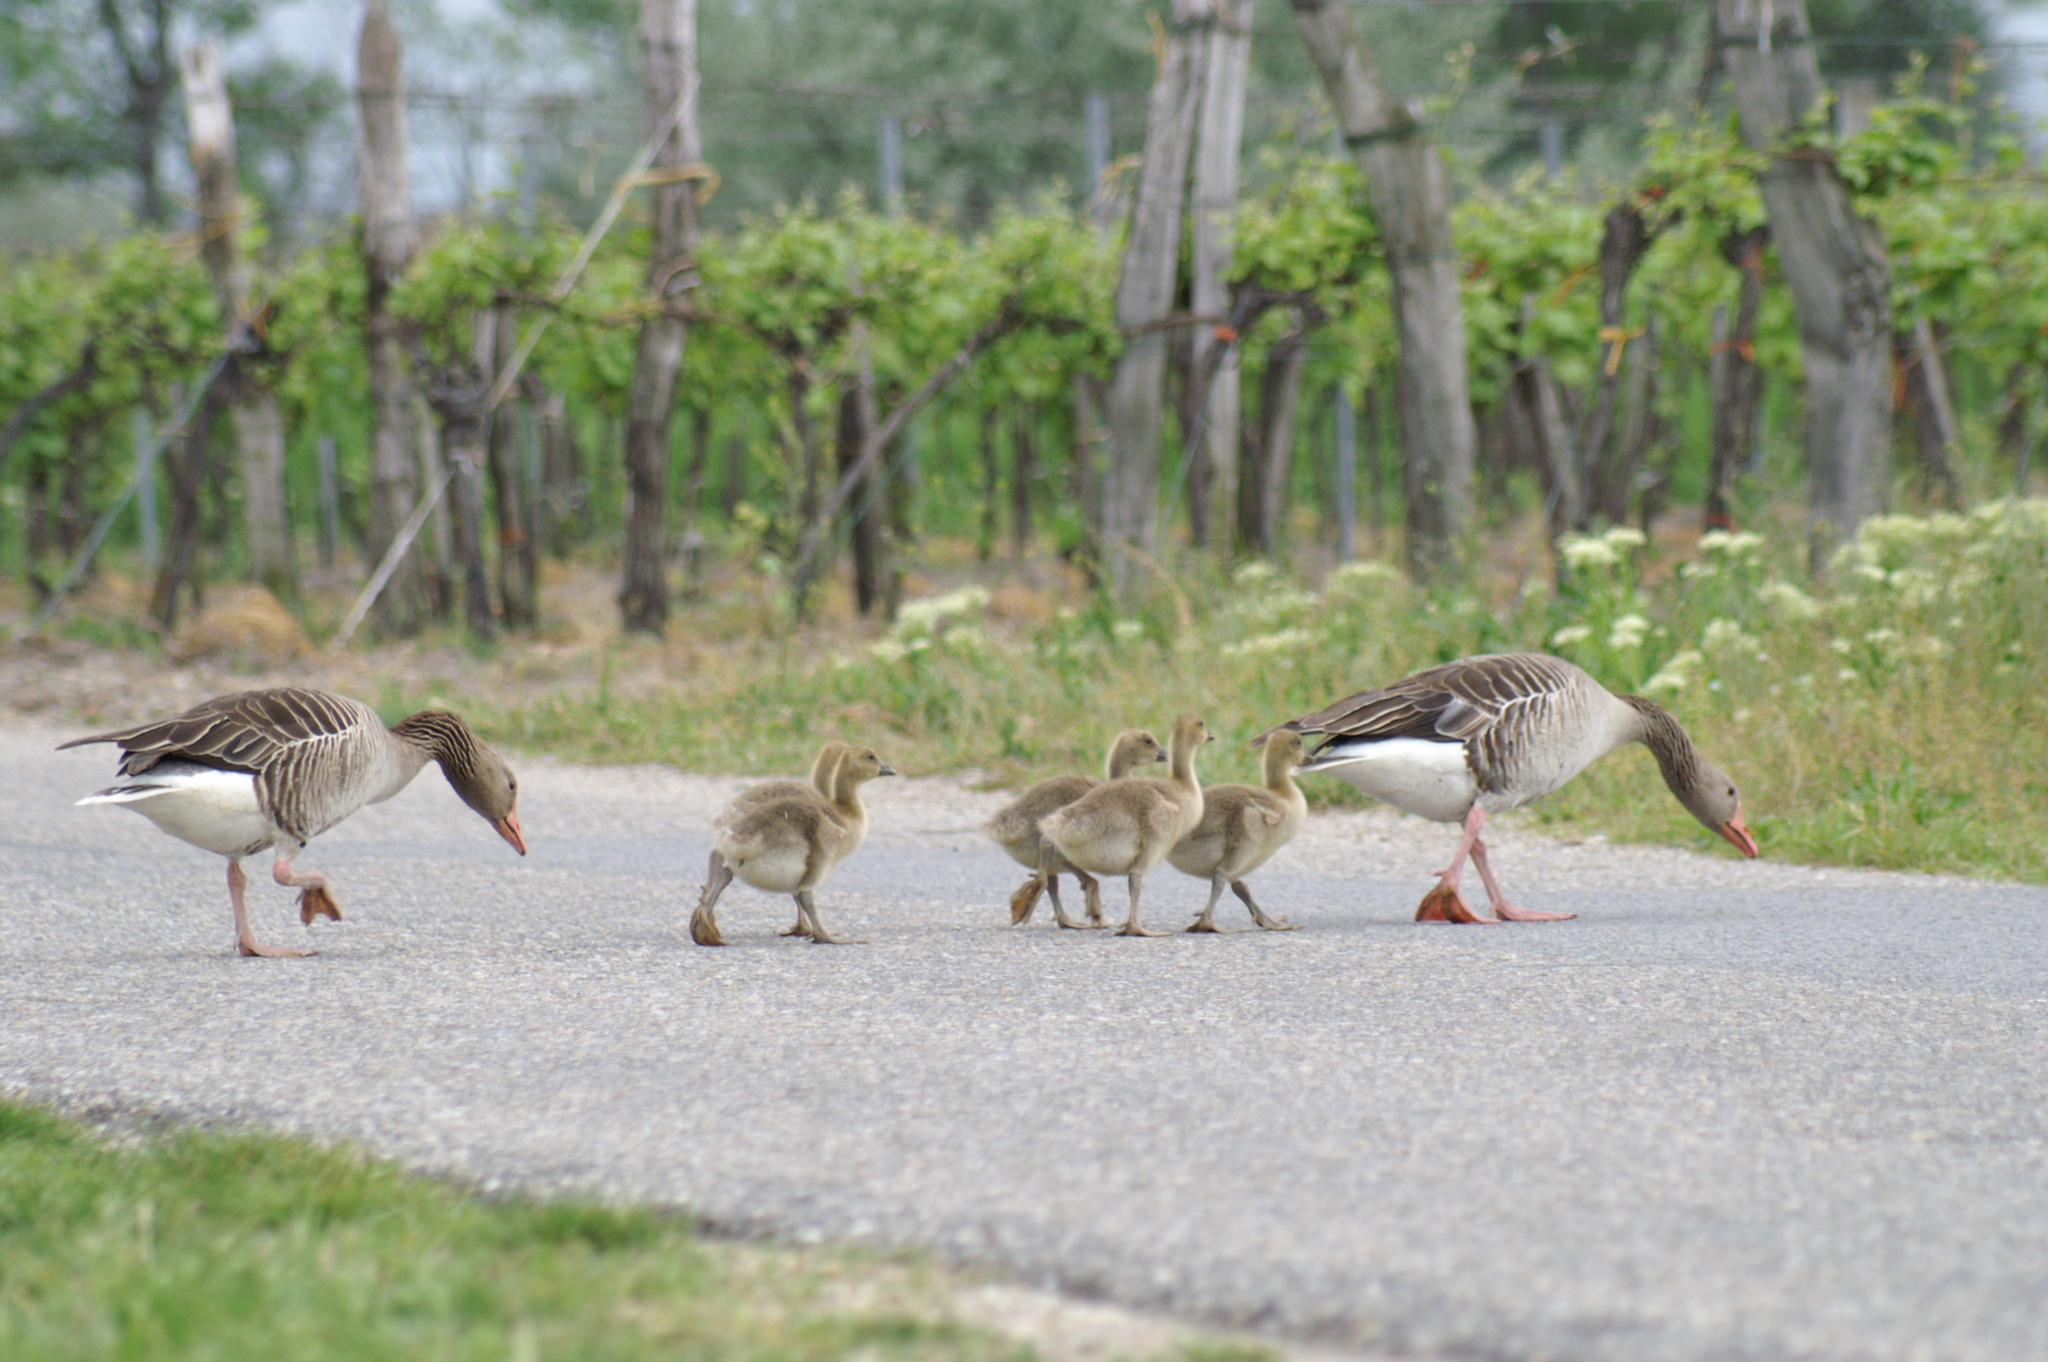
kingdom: Animalia
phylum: Chordata
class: Aves
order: Anseriformes
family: Anatidae
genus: Anser
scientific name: Anser anser
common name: Greylag goose
